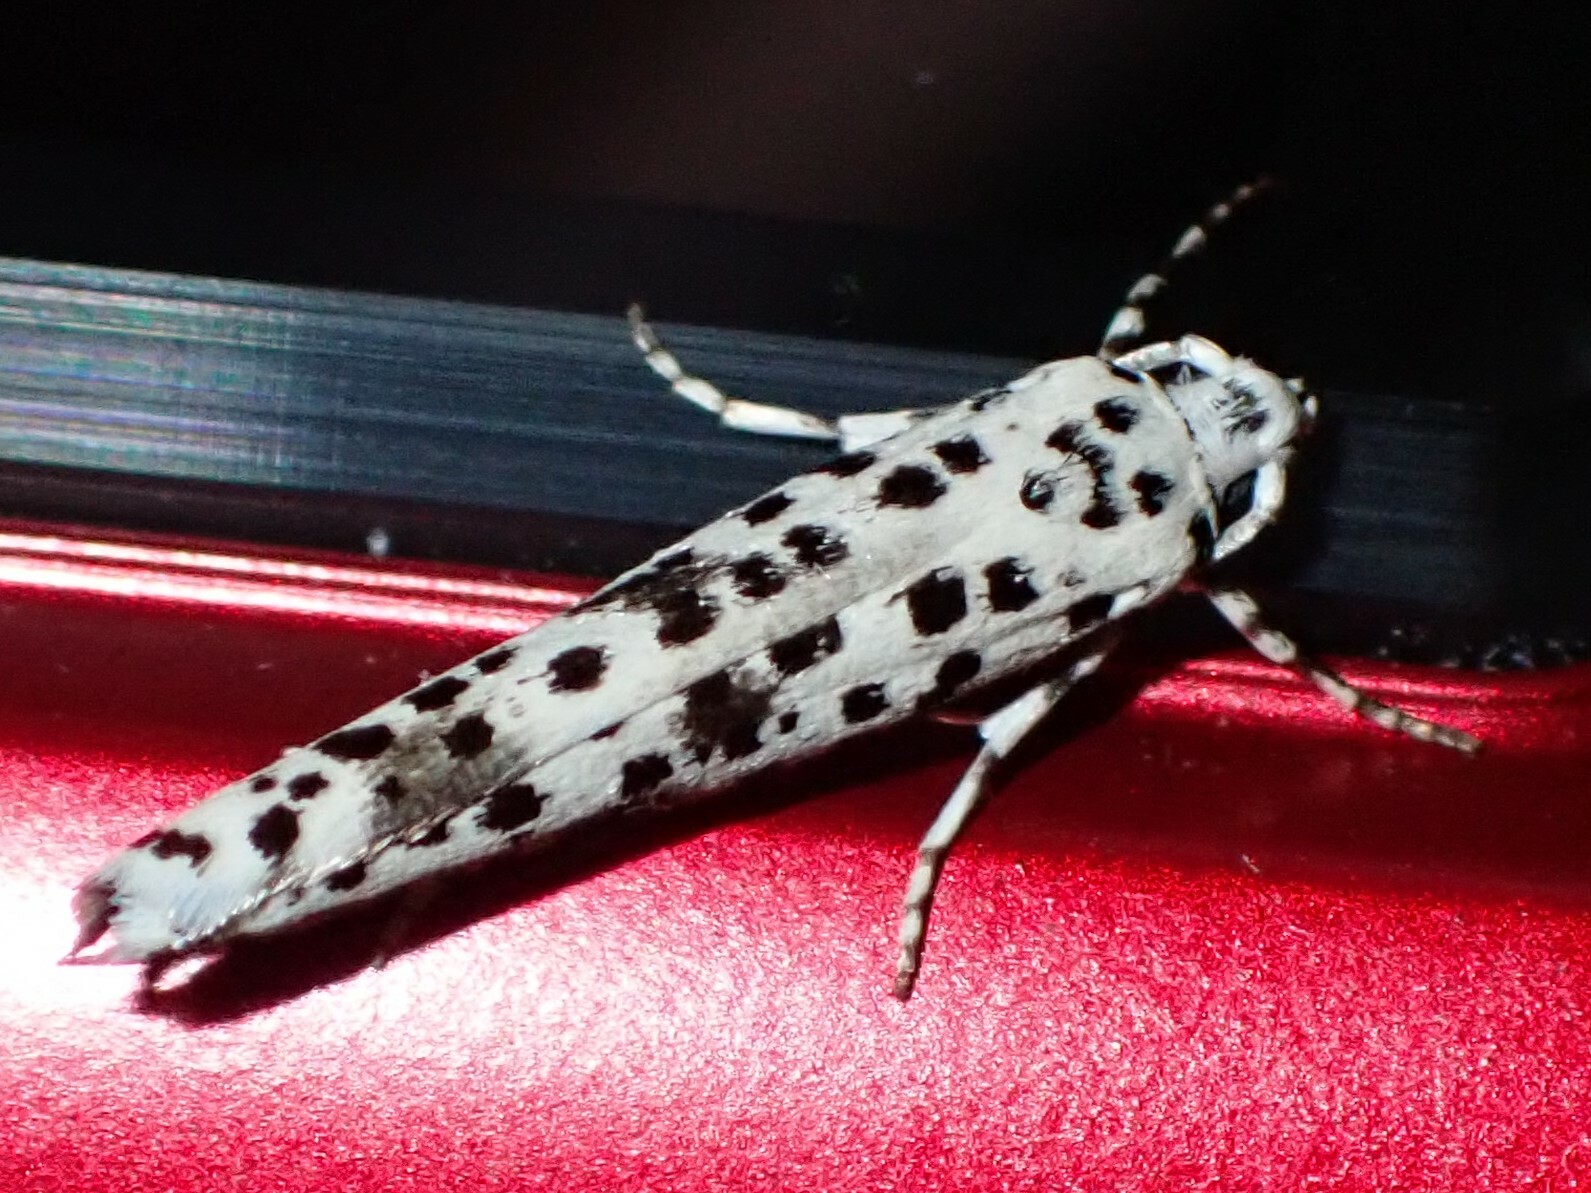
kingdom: Animalia
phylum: Arthropoda
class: Insecta
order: Lepidoptera
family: Yponomeutidae
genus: Yponomeuta
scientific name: Yponomeuta africana
